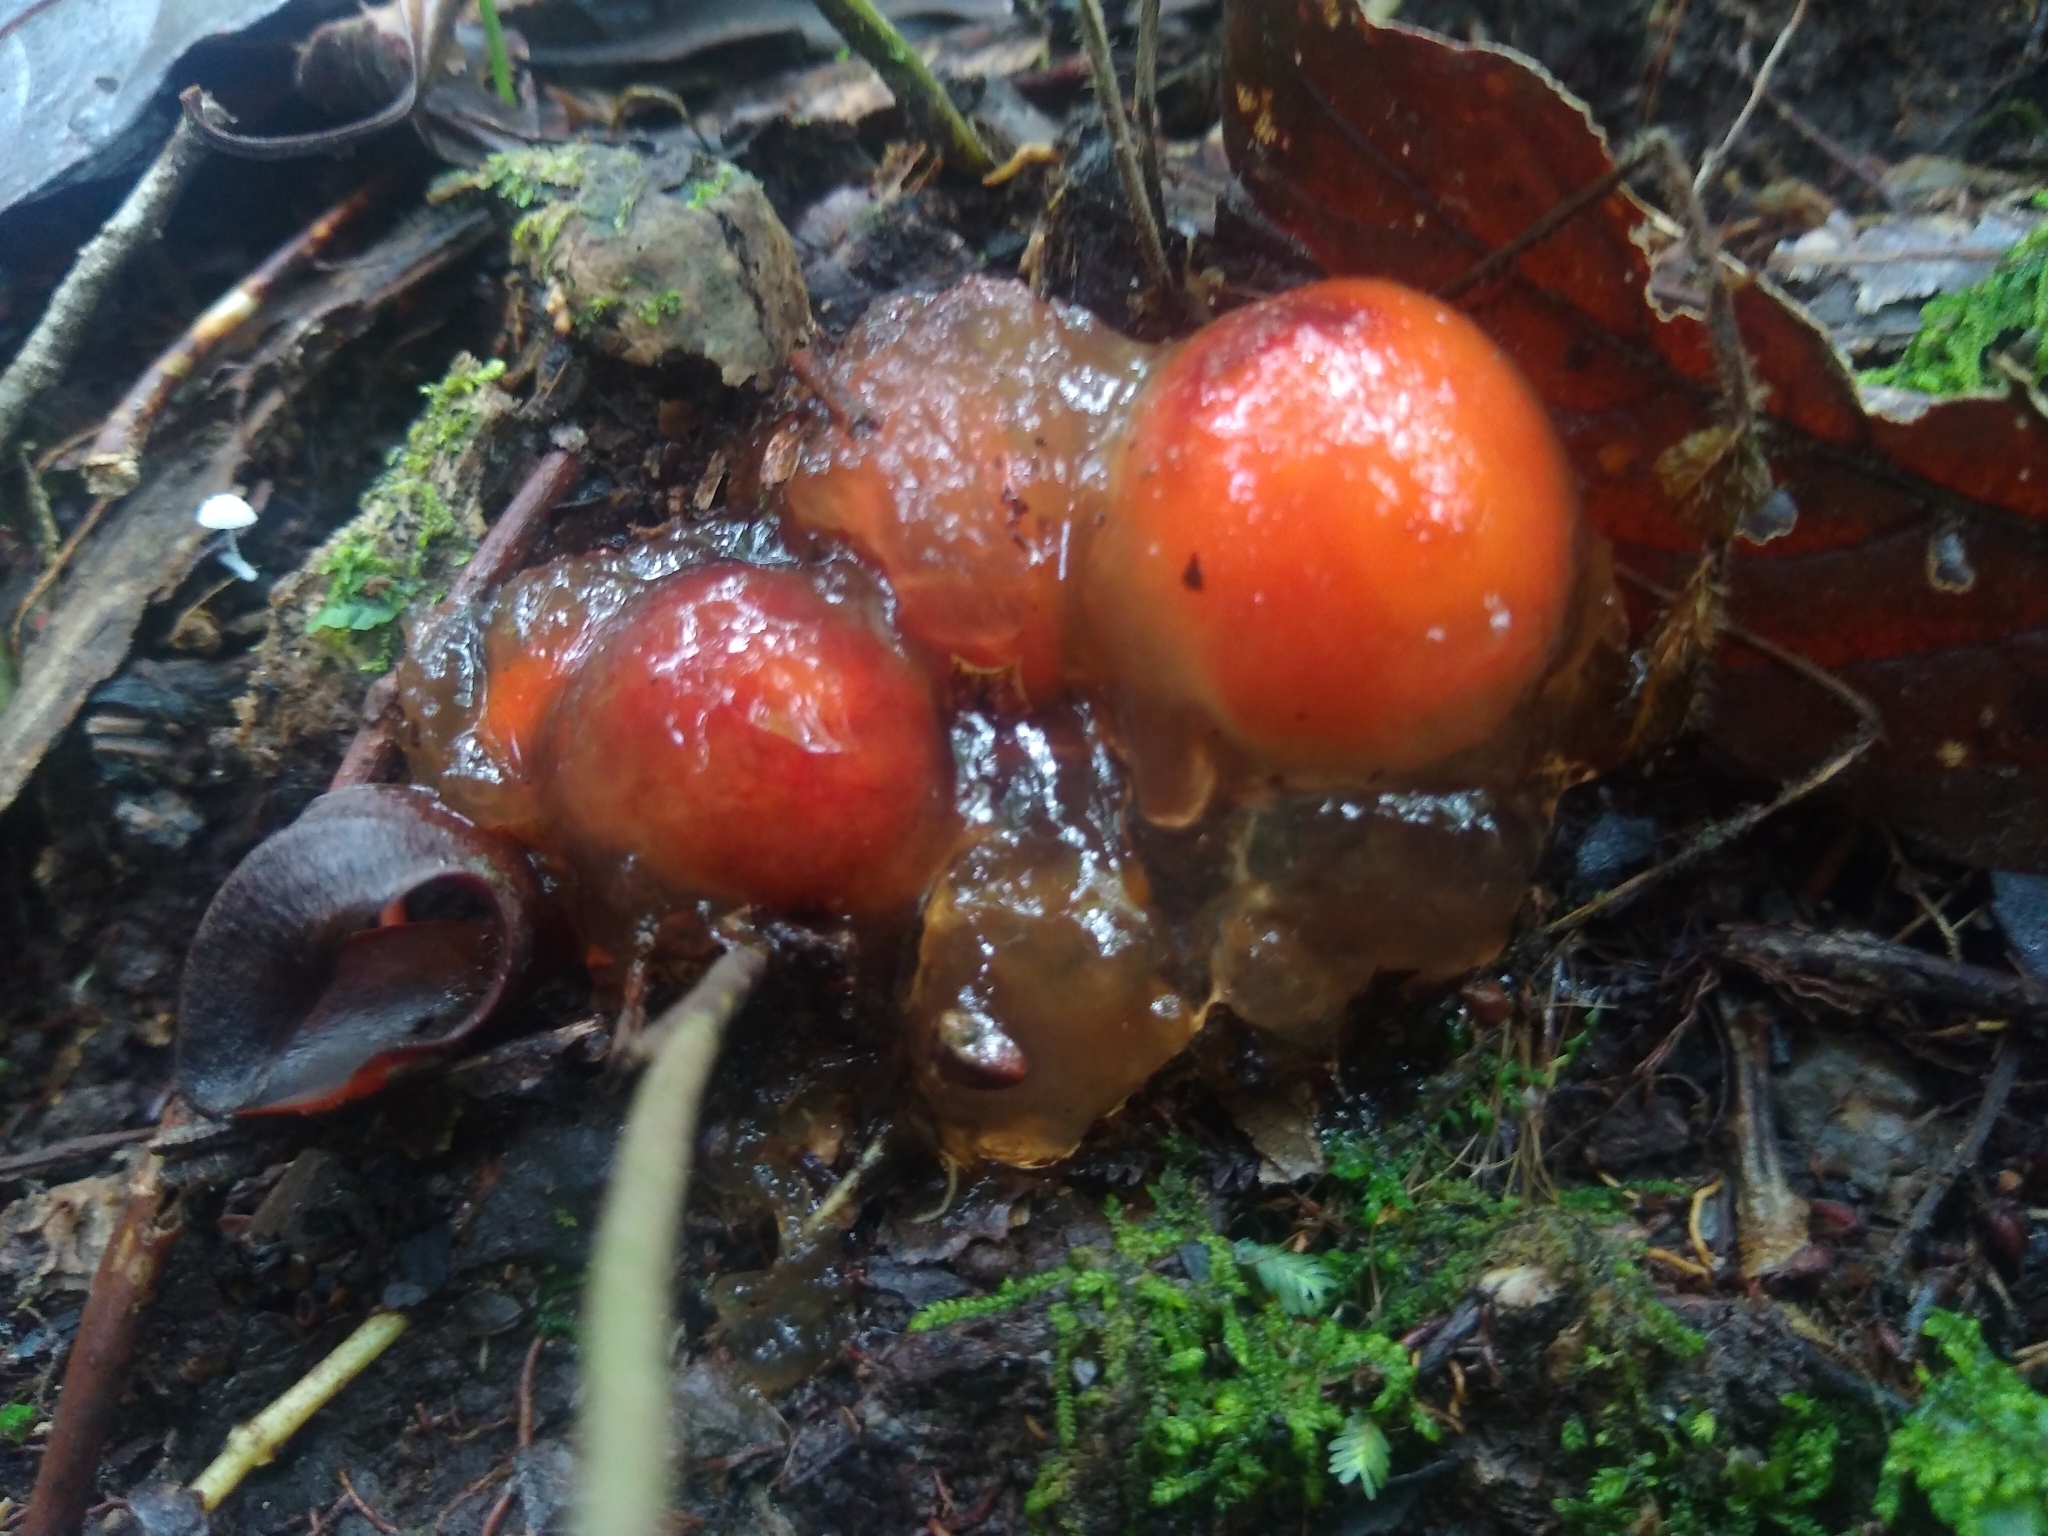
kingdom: Fungi
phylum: Basidiomycota
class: Agaricomycetes
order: Boletales
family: Calostomataceae
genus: Calostoma
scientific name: Calostoma cinnabarinum
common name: Stalked puffball-in-aspic
